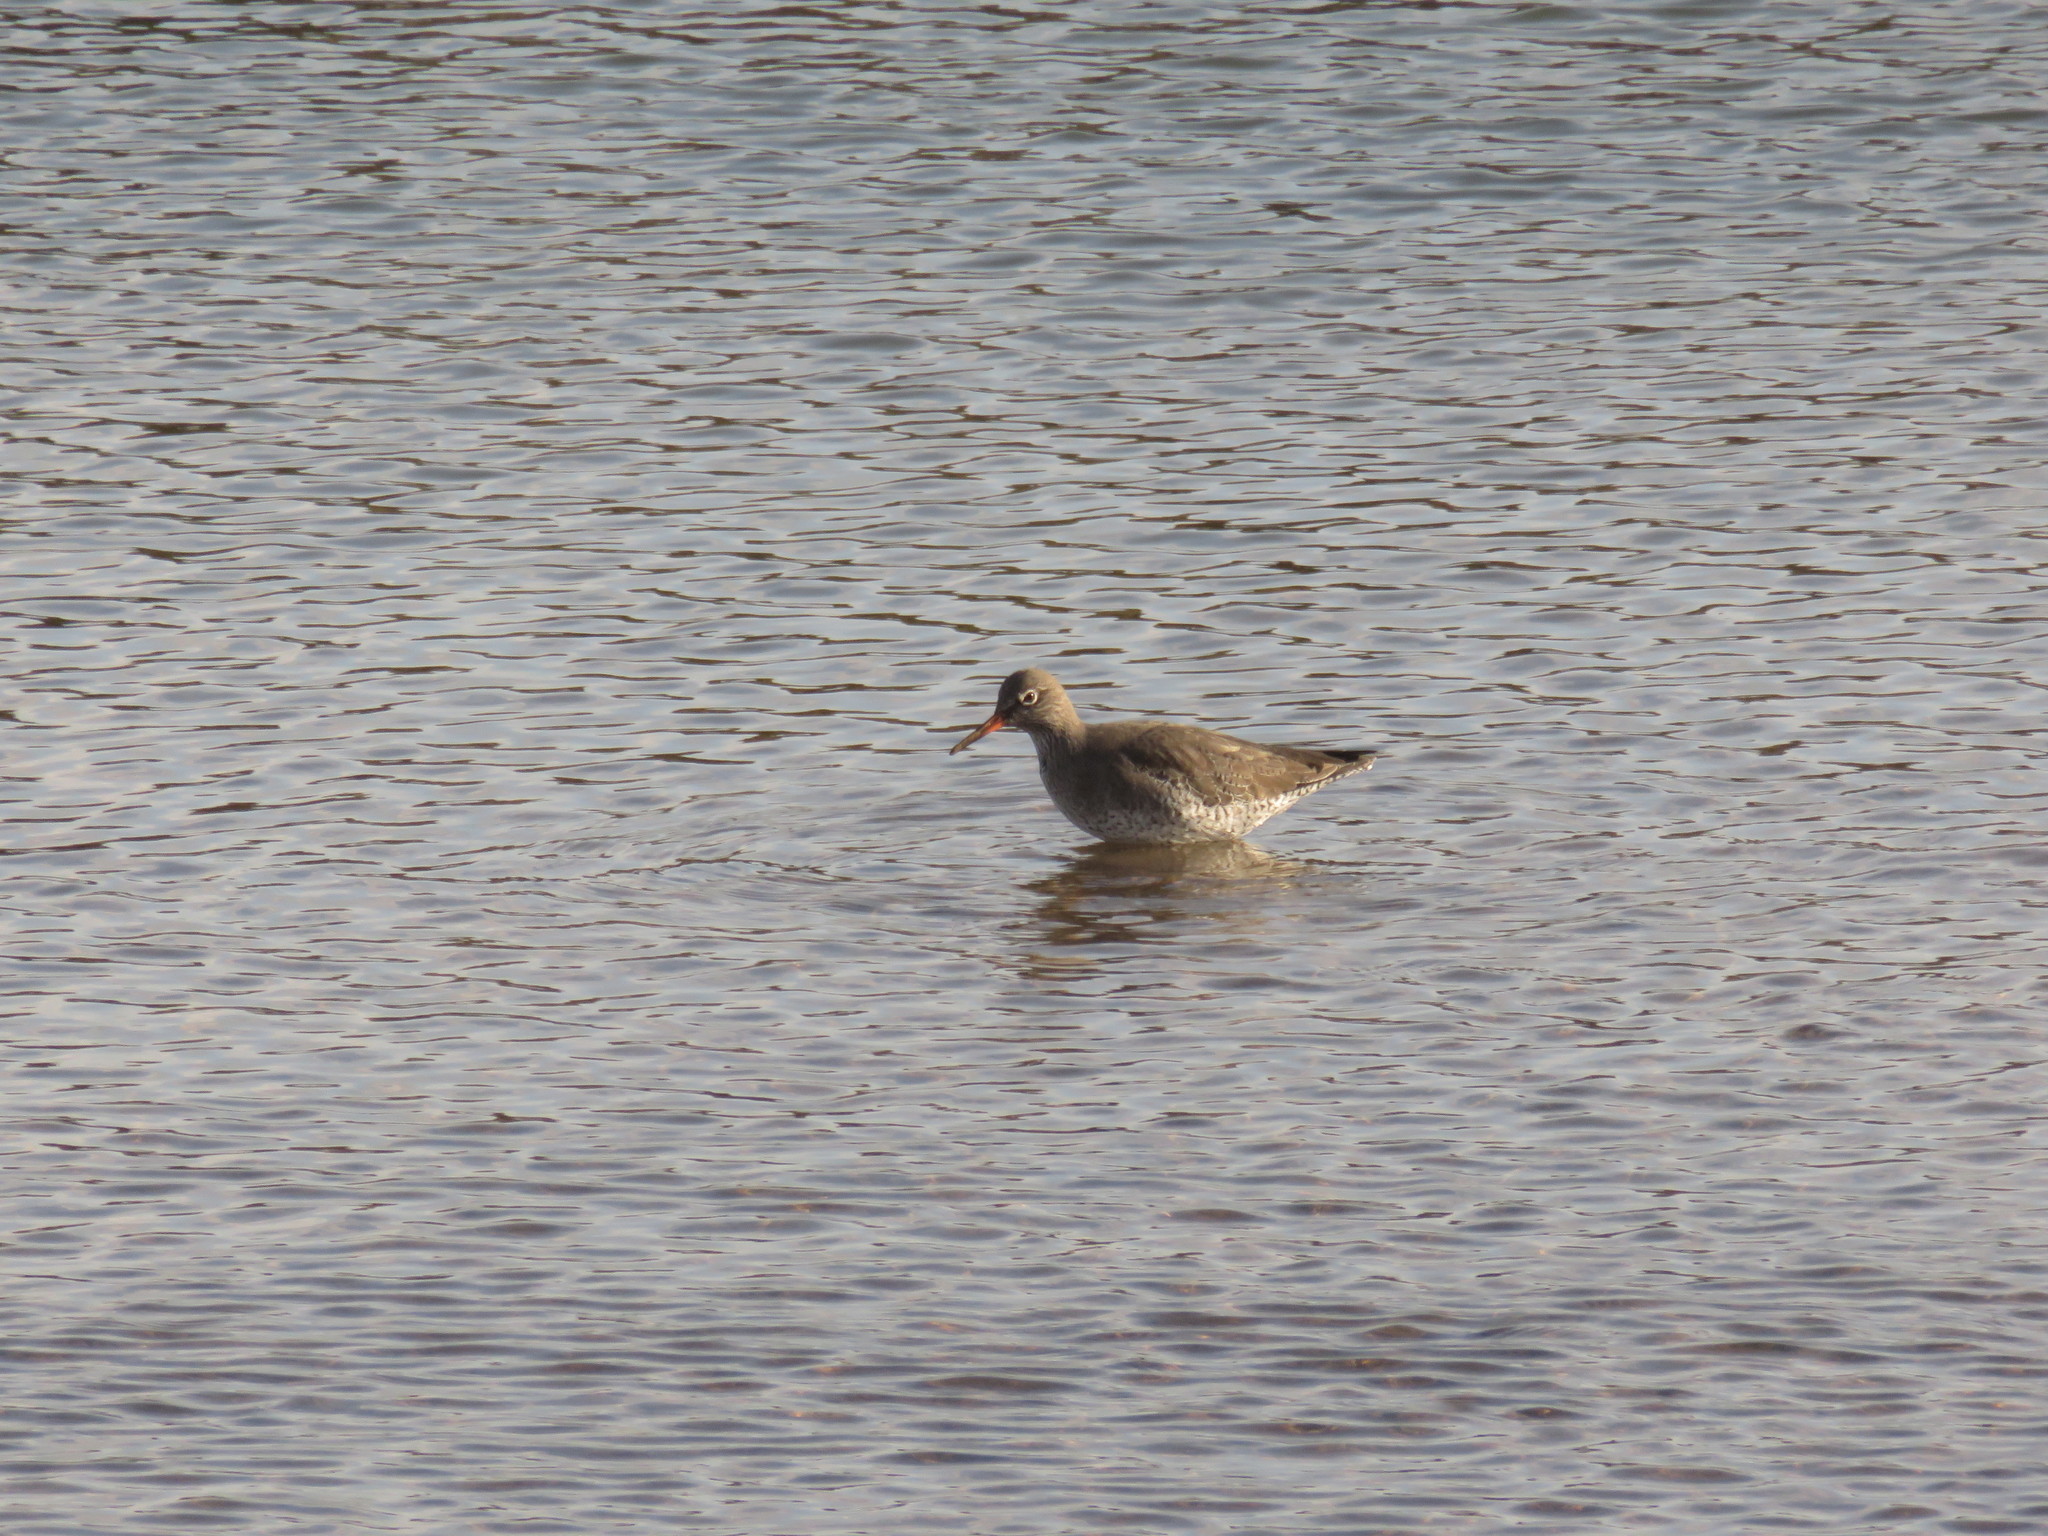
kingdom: Animalia
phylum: Chordata
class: Aves
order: Charadriiformes
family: Scolopacidae
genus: Tringa
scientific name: Tringa totanus
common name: Common redshank
